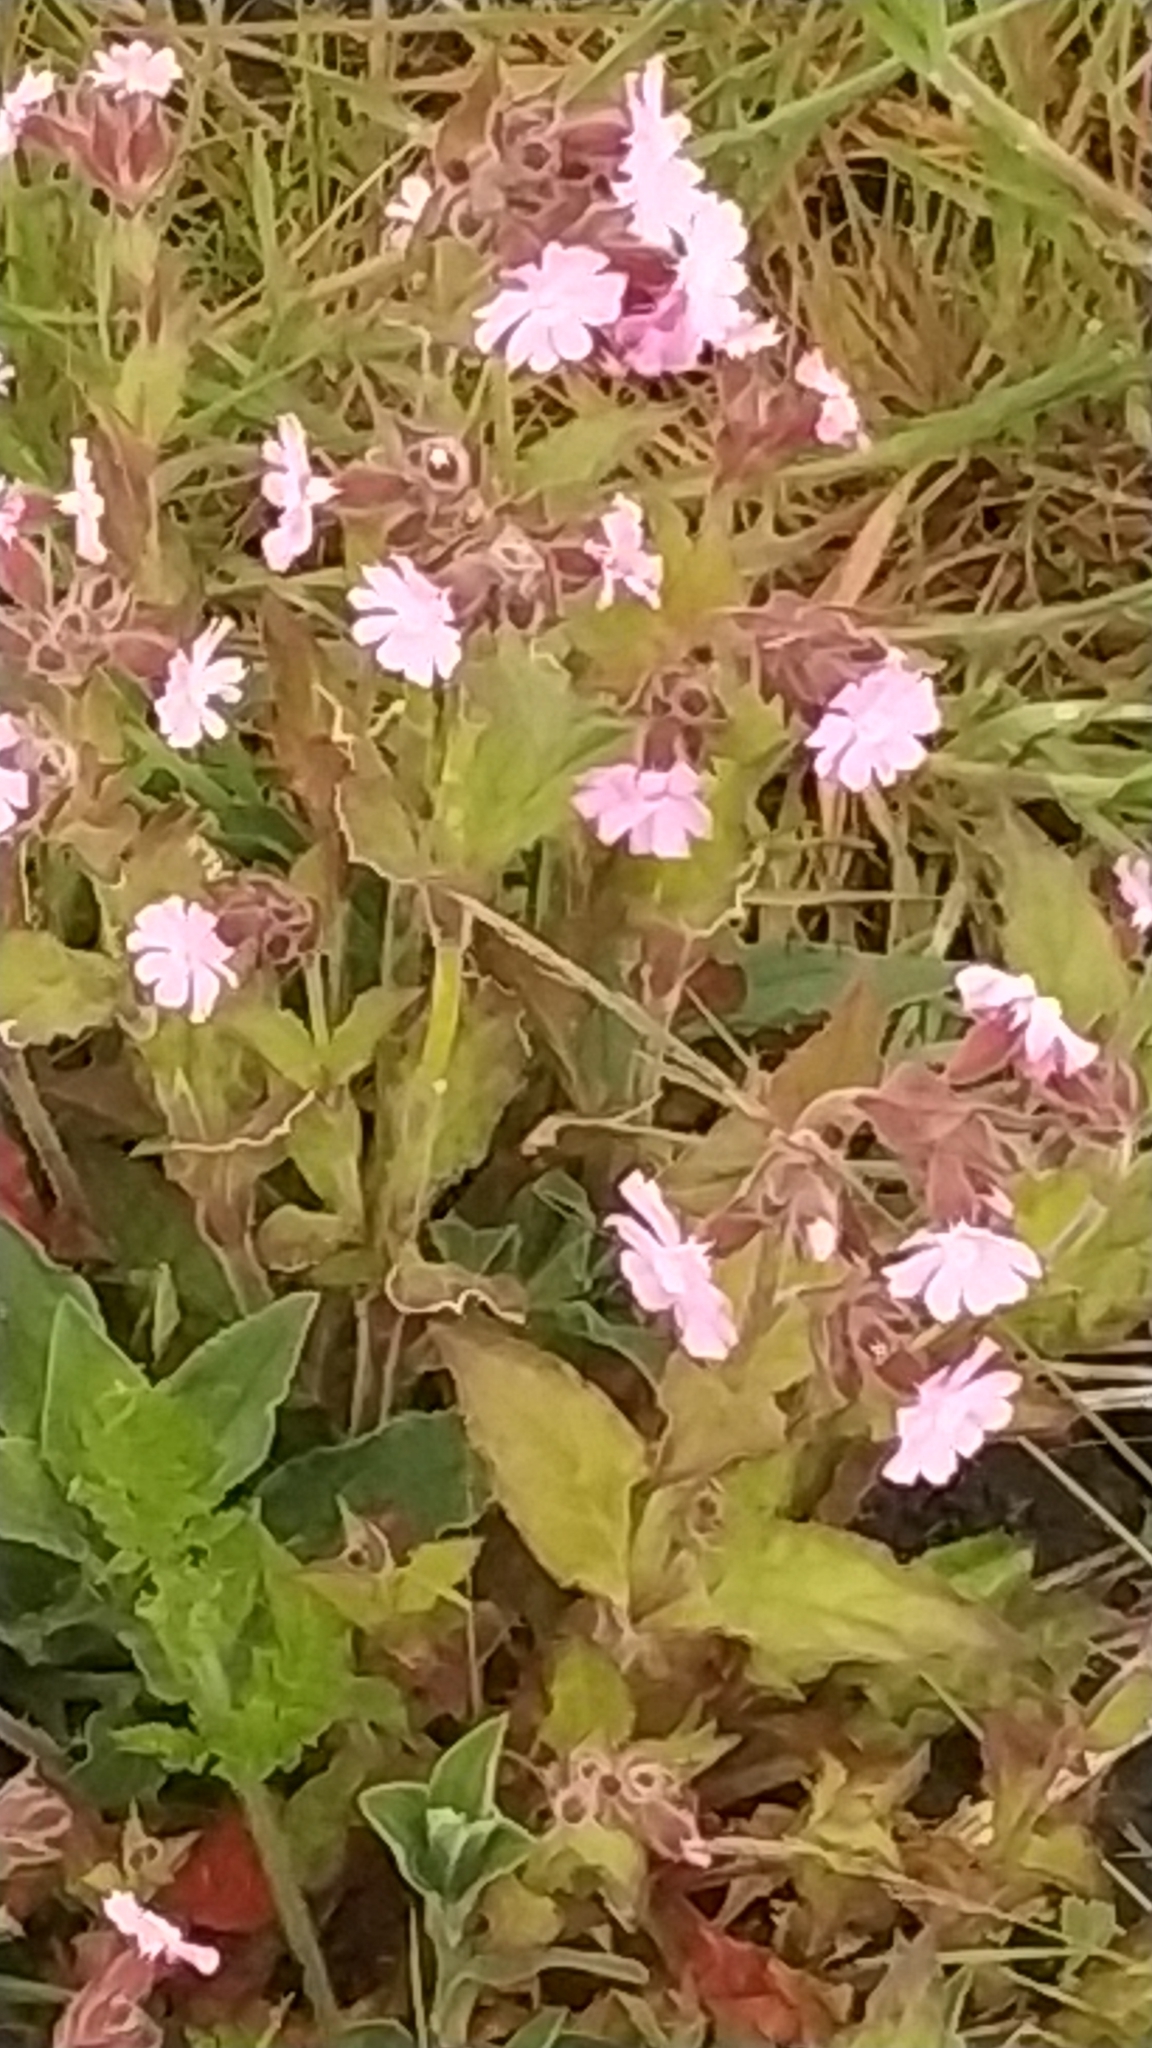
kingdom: Plantae
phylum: Tracheophyta
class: Magnoliopsida
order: Caryophyllales
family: Caryophyllaceae
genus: Silene
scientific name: Silene dioica
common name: Red campion
